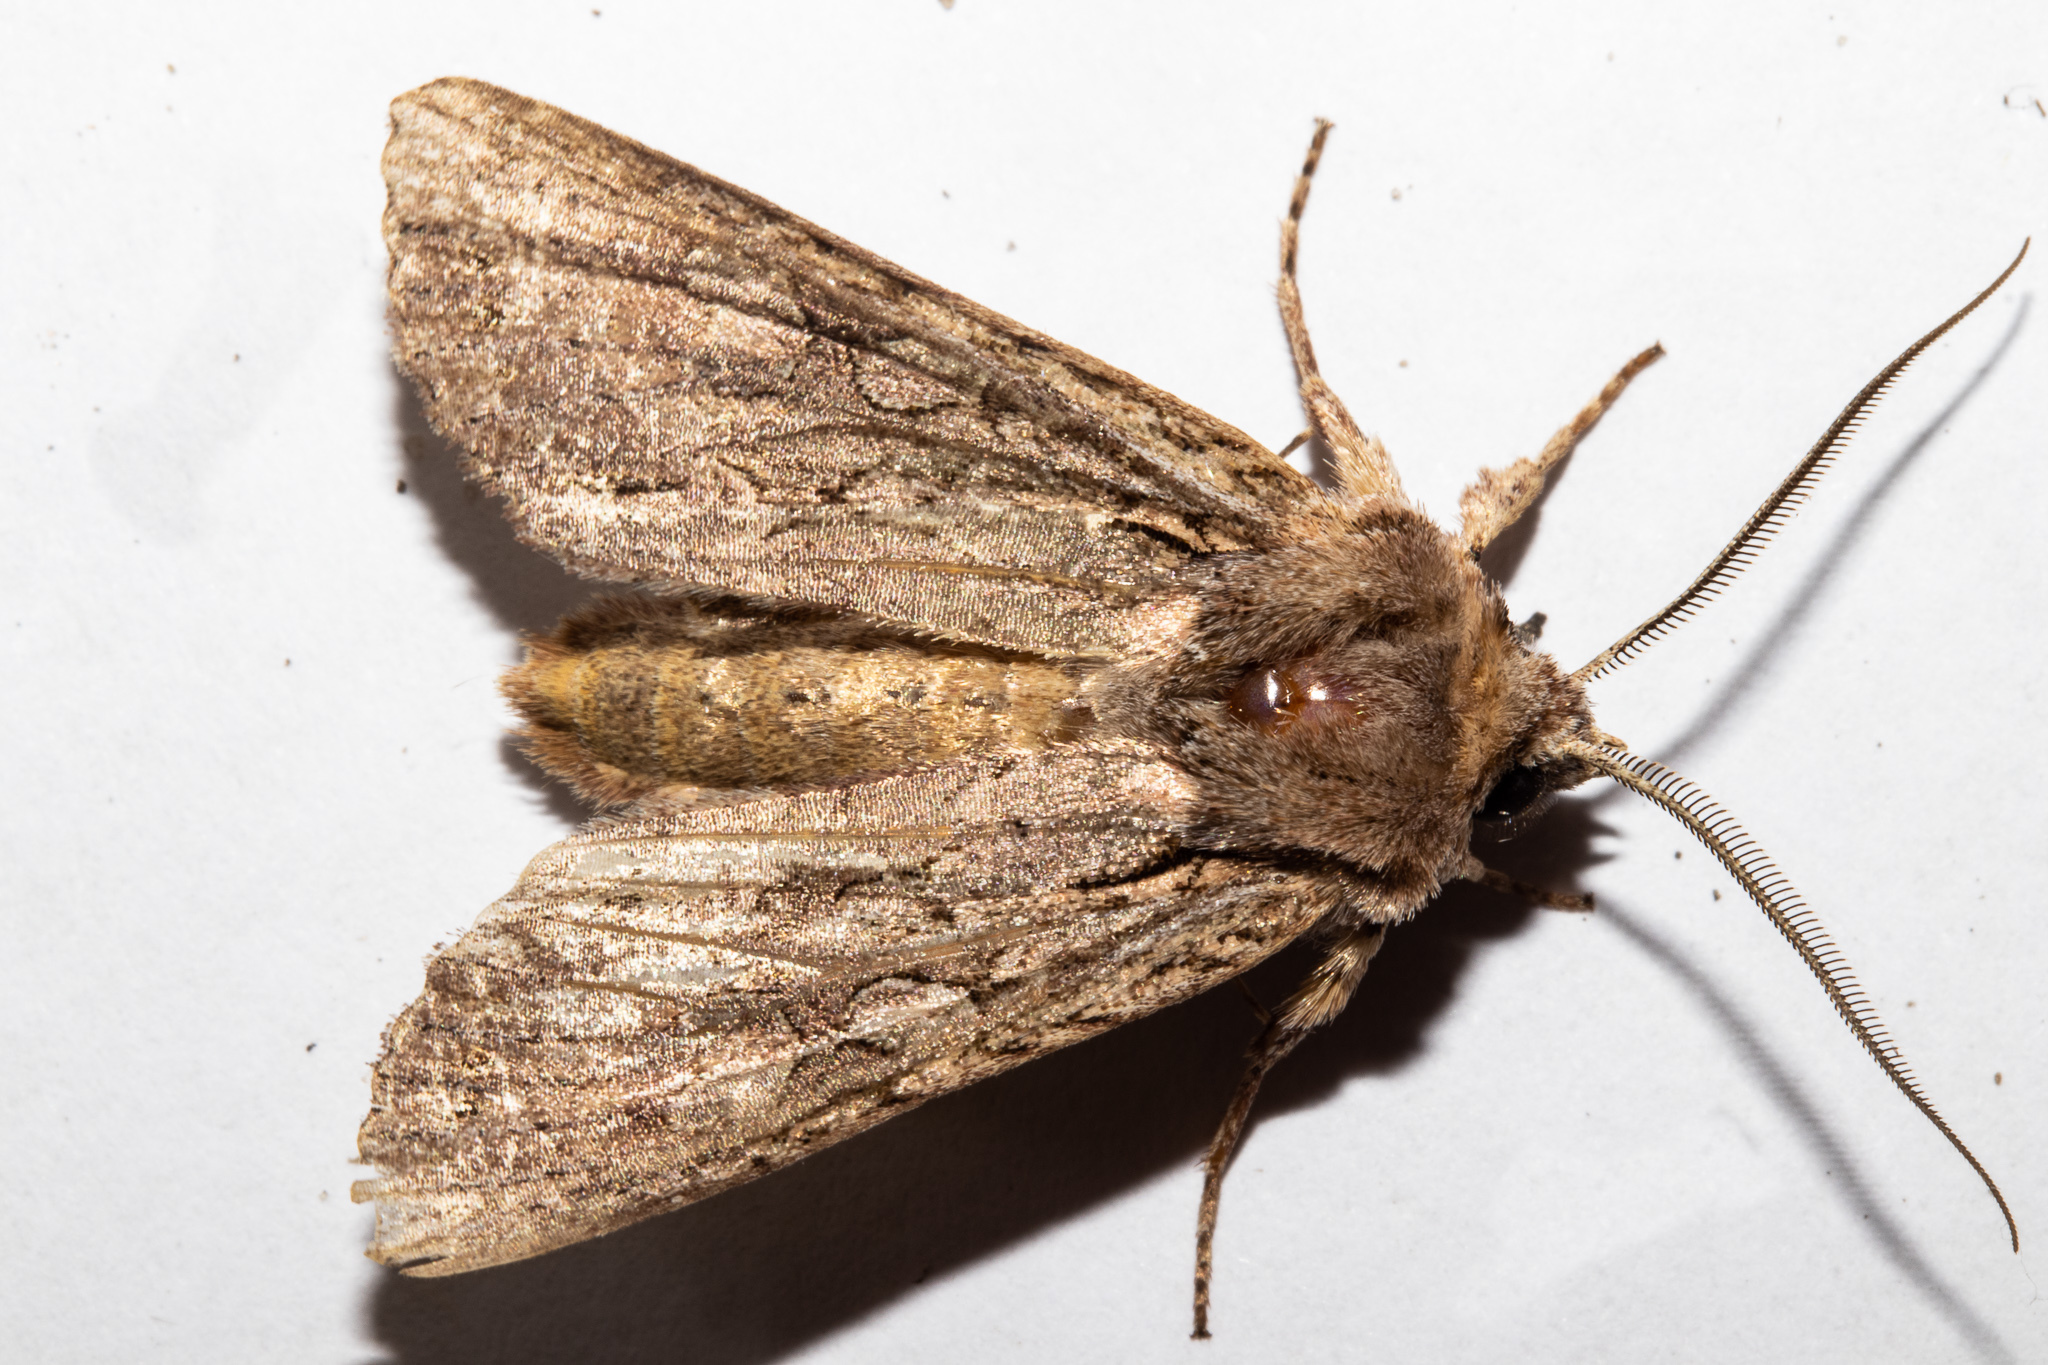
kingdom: Animalia
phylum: Arthropoda
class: Insecta
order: Lepidoptera
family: Noctuidae
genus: Ichneutica
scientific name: Ichneutica mutans
